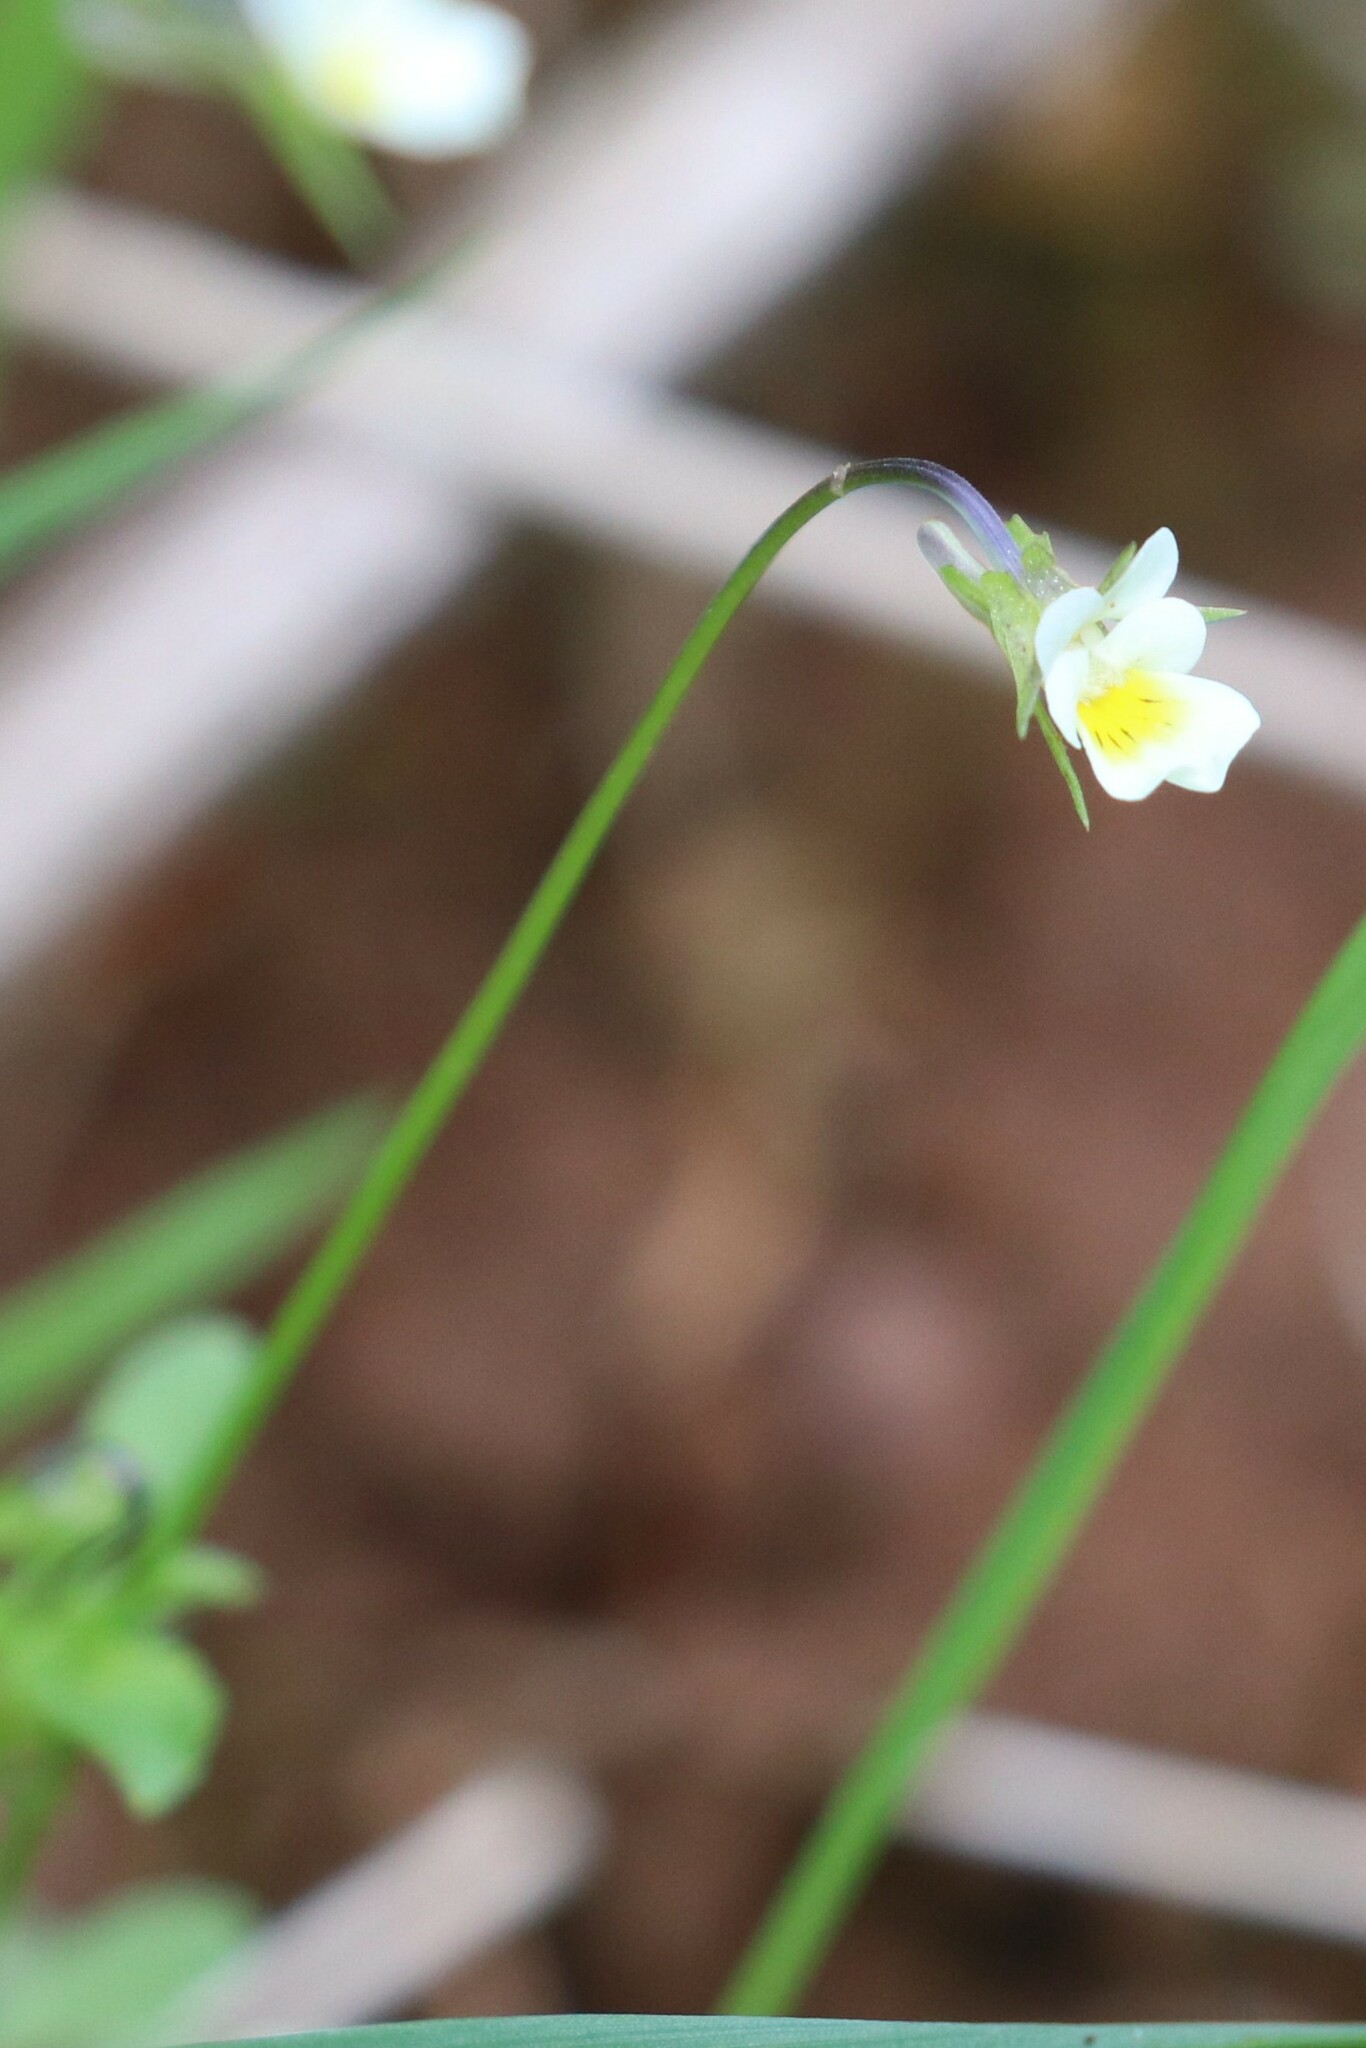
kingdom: Plantae
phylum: Tracheophyta
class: Magnoliopsida
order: Malpighiales
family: Violaceae
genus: Viola
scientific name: Viola arvensis
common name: Field pansy
